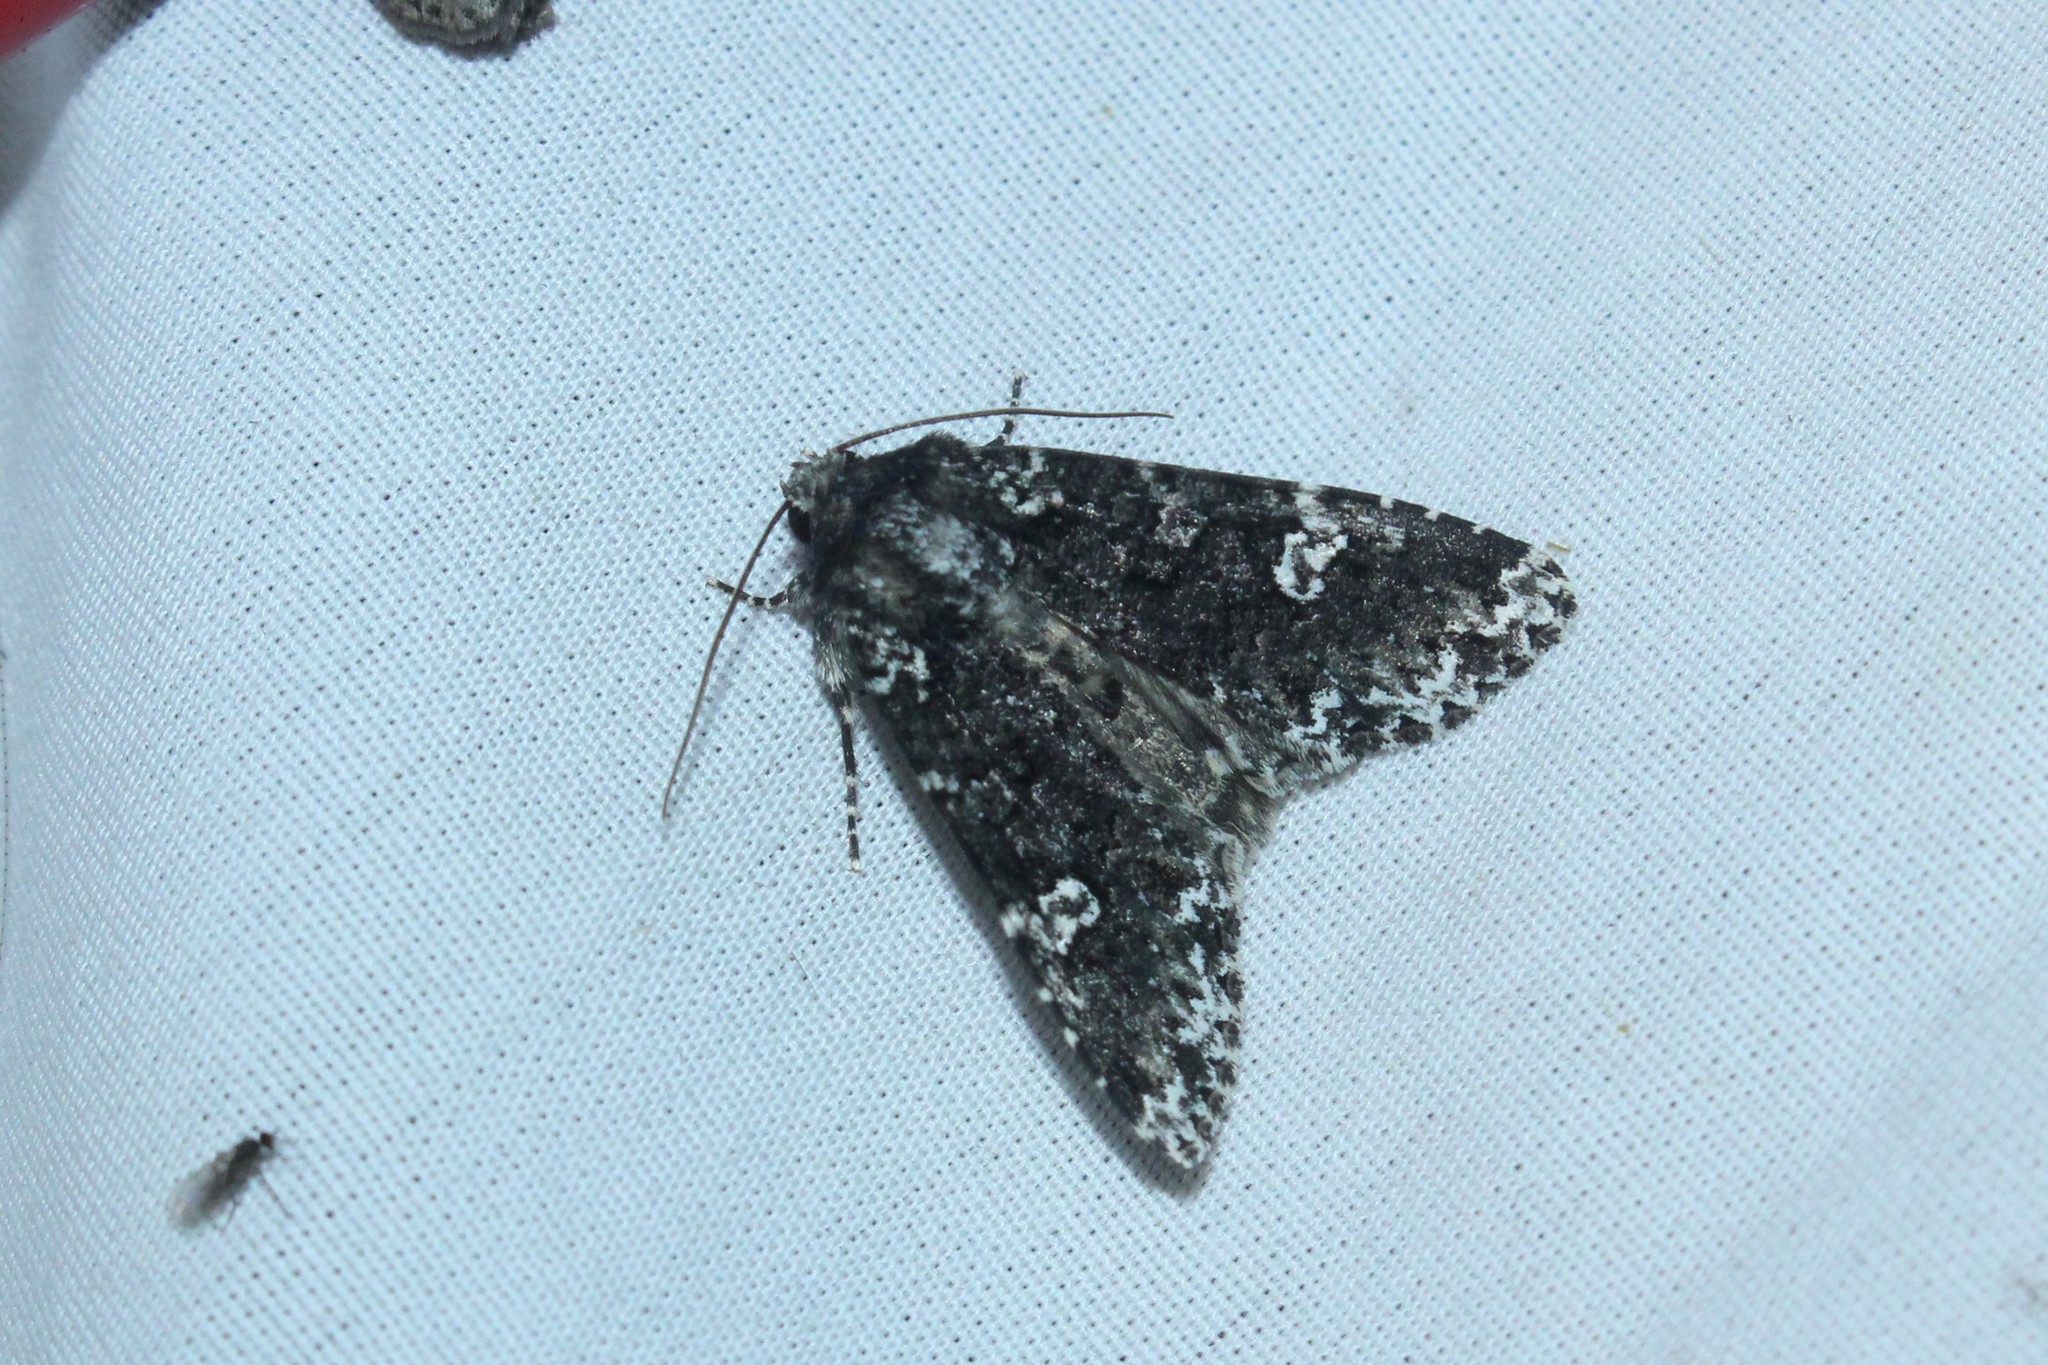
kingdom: Animalia
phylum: Arthropoda
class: Insecta
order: Lepidoptera
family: Noctuidae
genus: Melanchra
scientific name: Melanchra adjuncta
